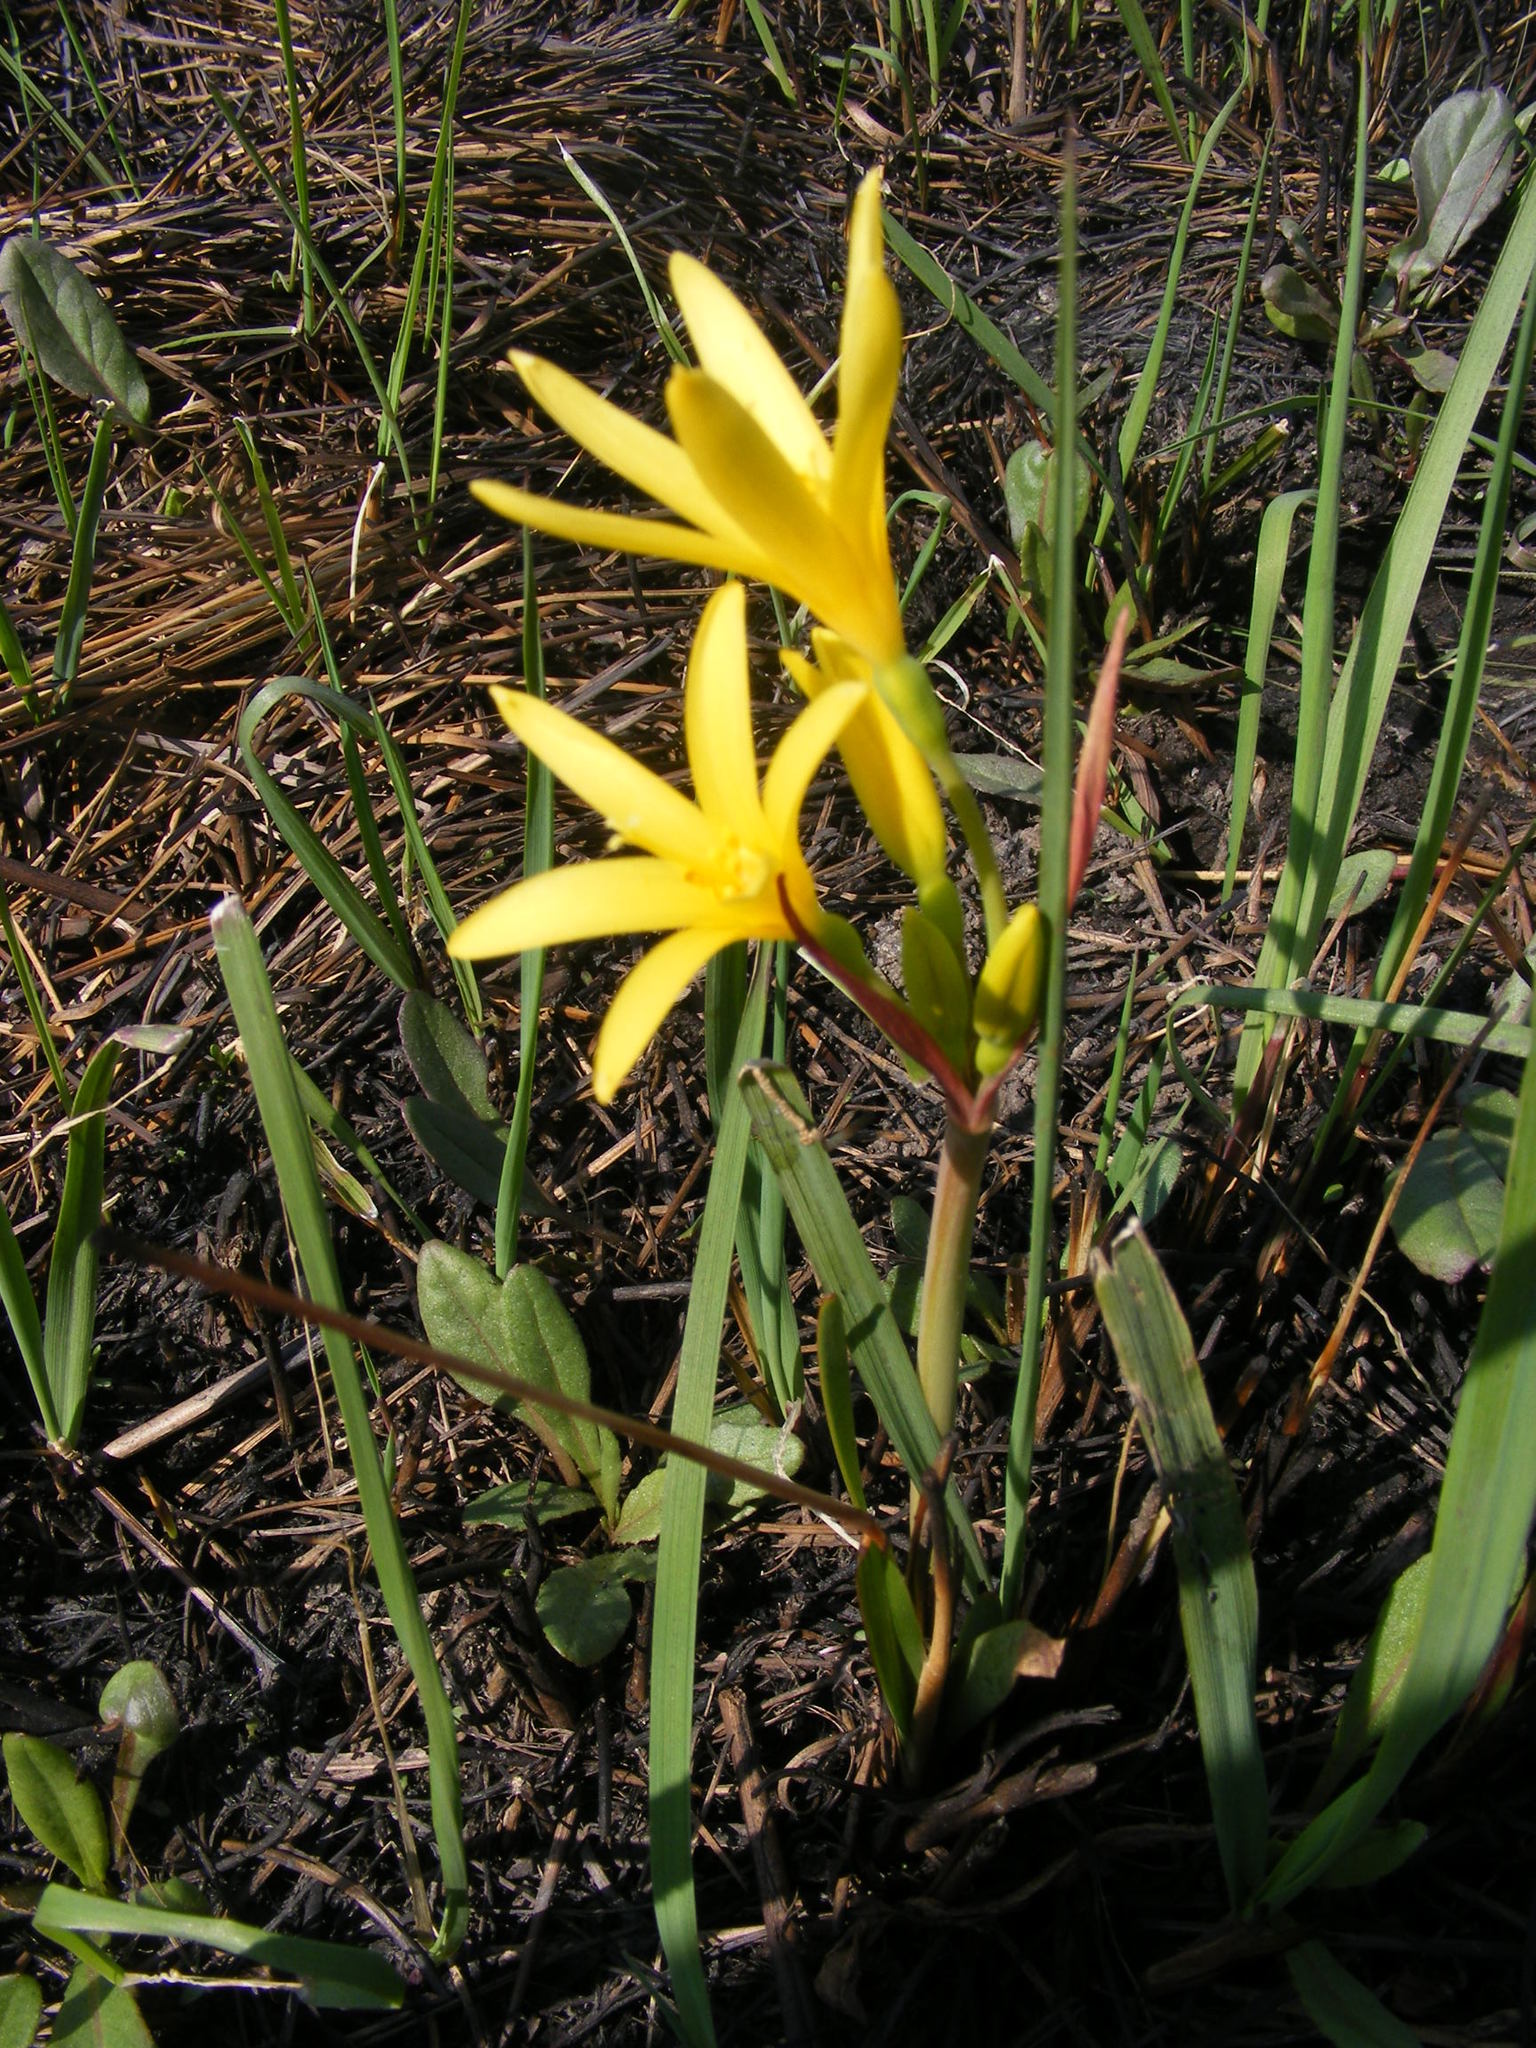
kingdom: Plantae
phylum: Tracheophyta
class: Liliopsida
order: Asparagales
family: Amaryllidaceae
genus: Cyrtanthus
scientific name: Cyrtanthus breviflorus
